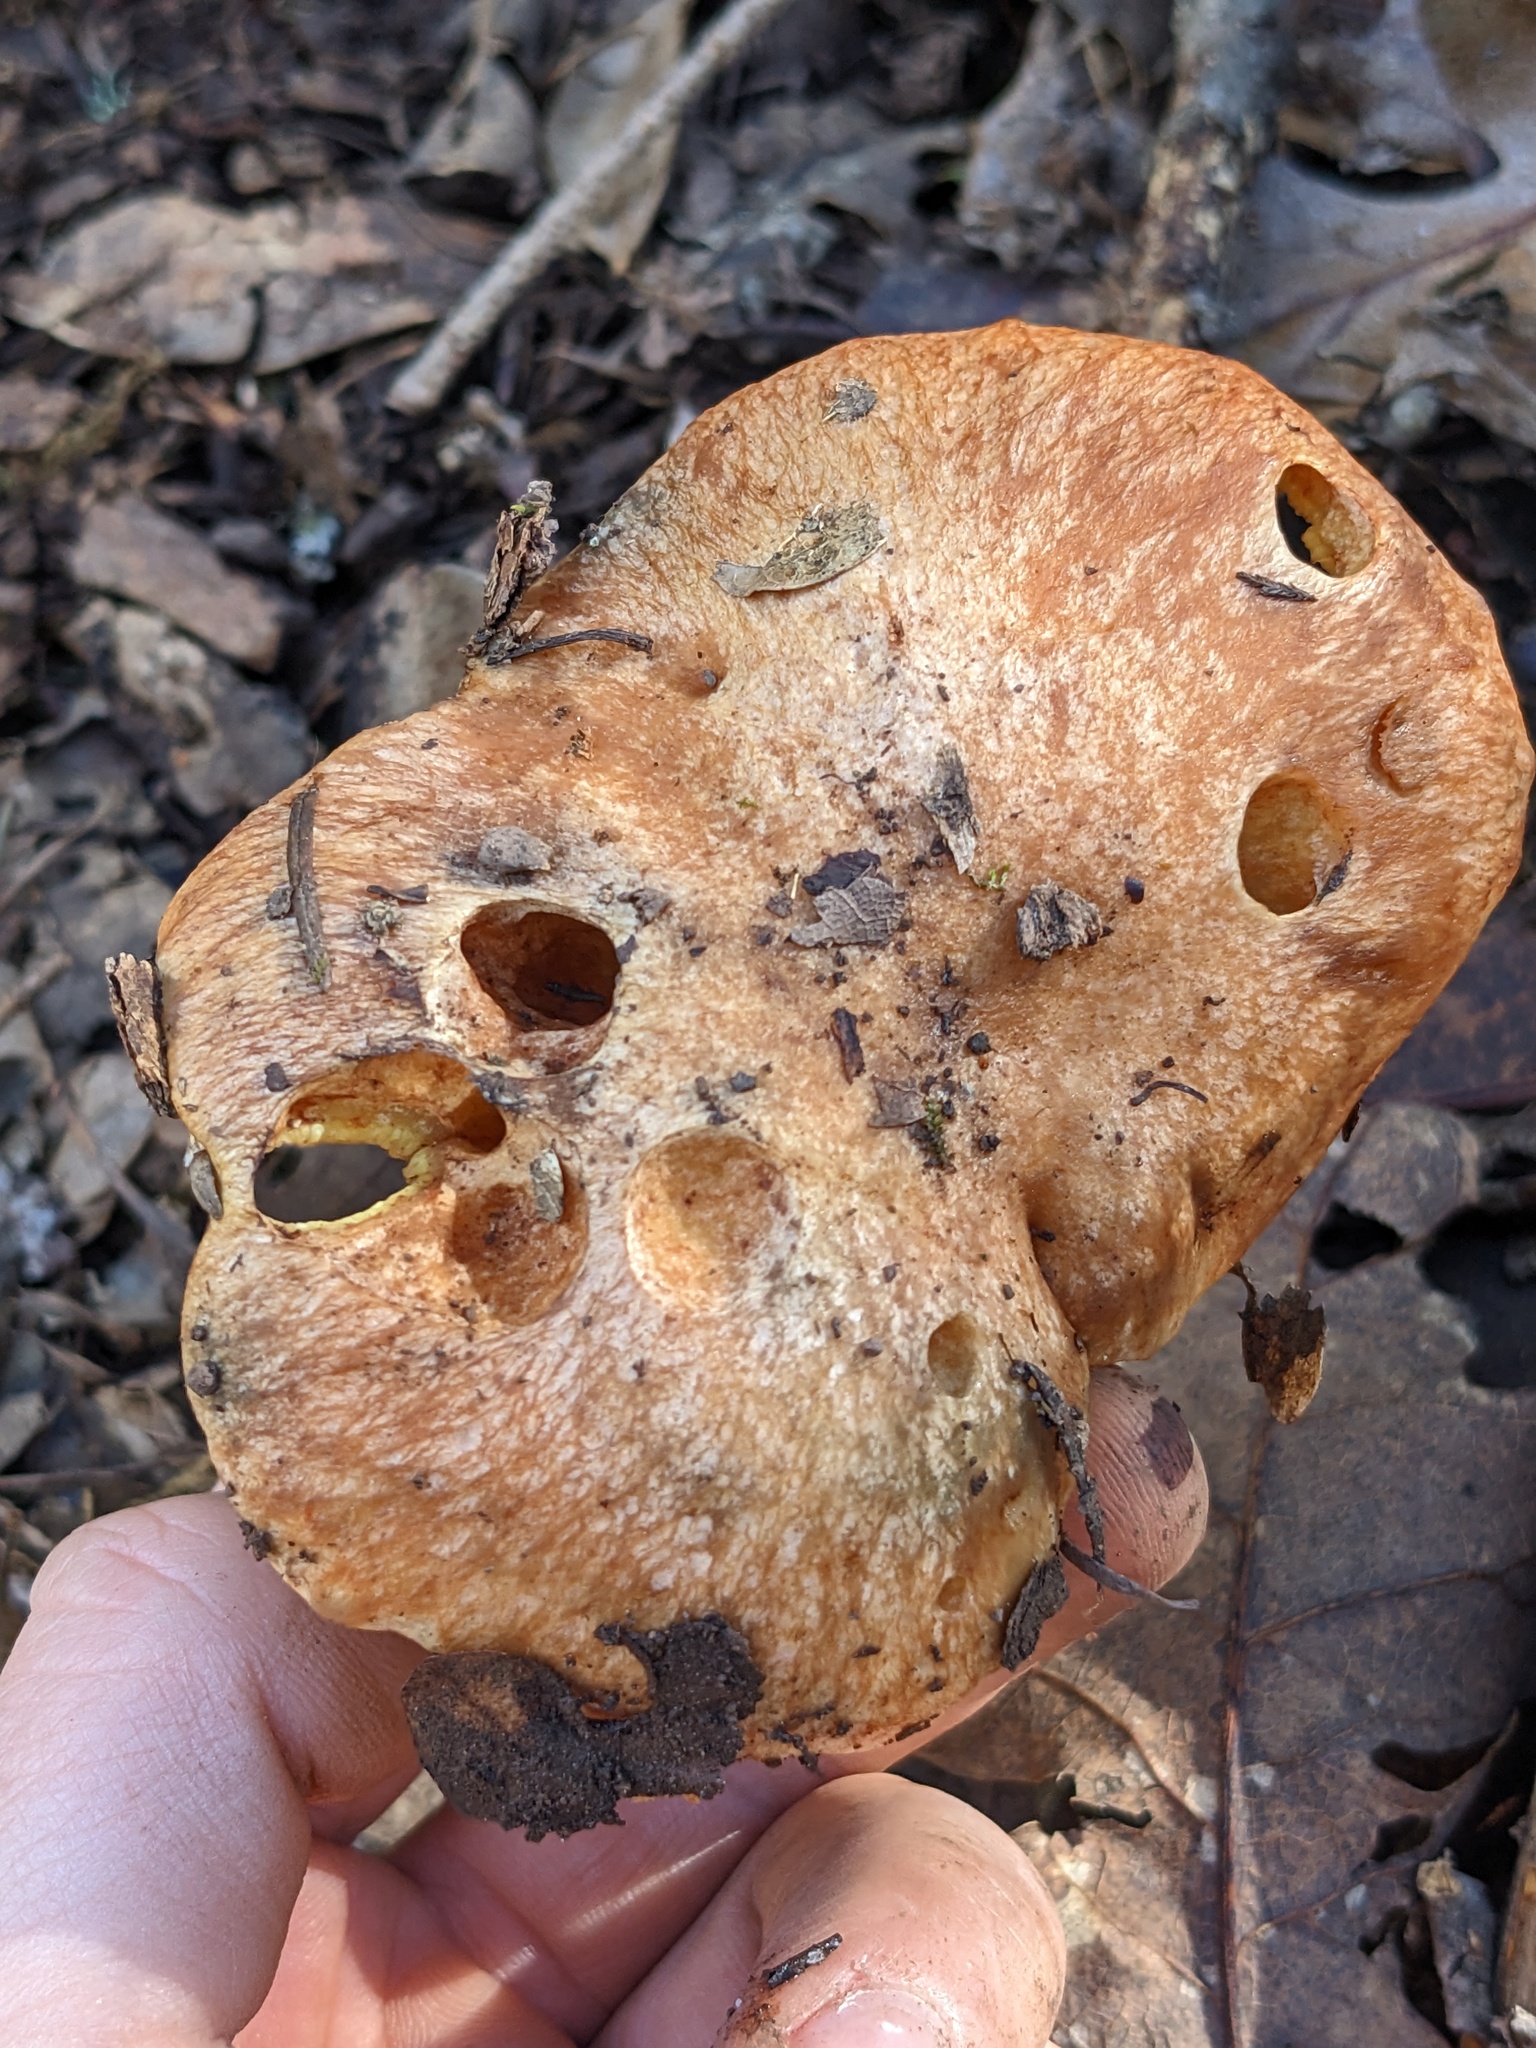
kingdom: Fungi
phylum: Basidiomycota
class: Agaricomycetes
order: Boletales
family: Suillaceae
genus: Suillus
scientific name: Suillus caerulescens
